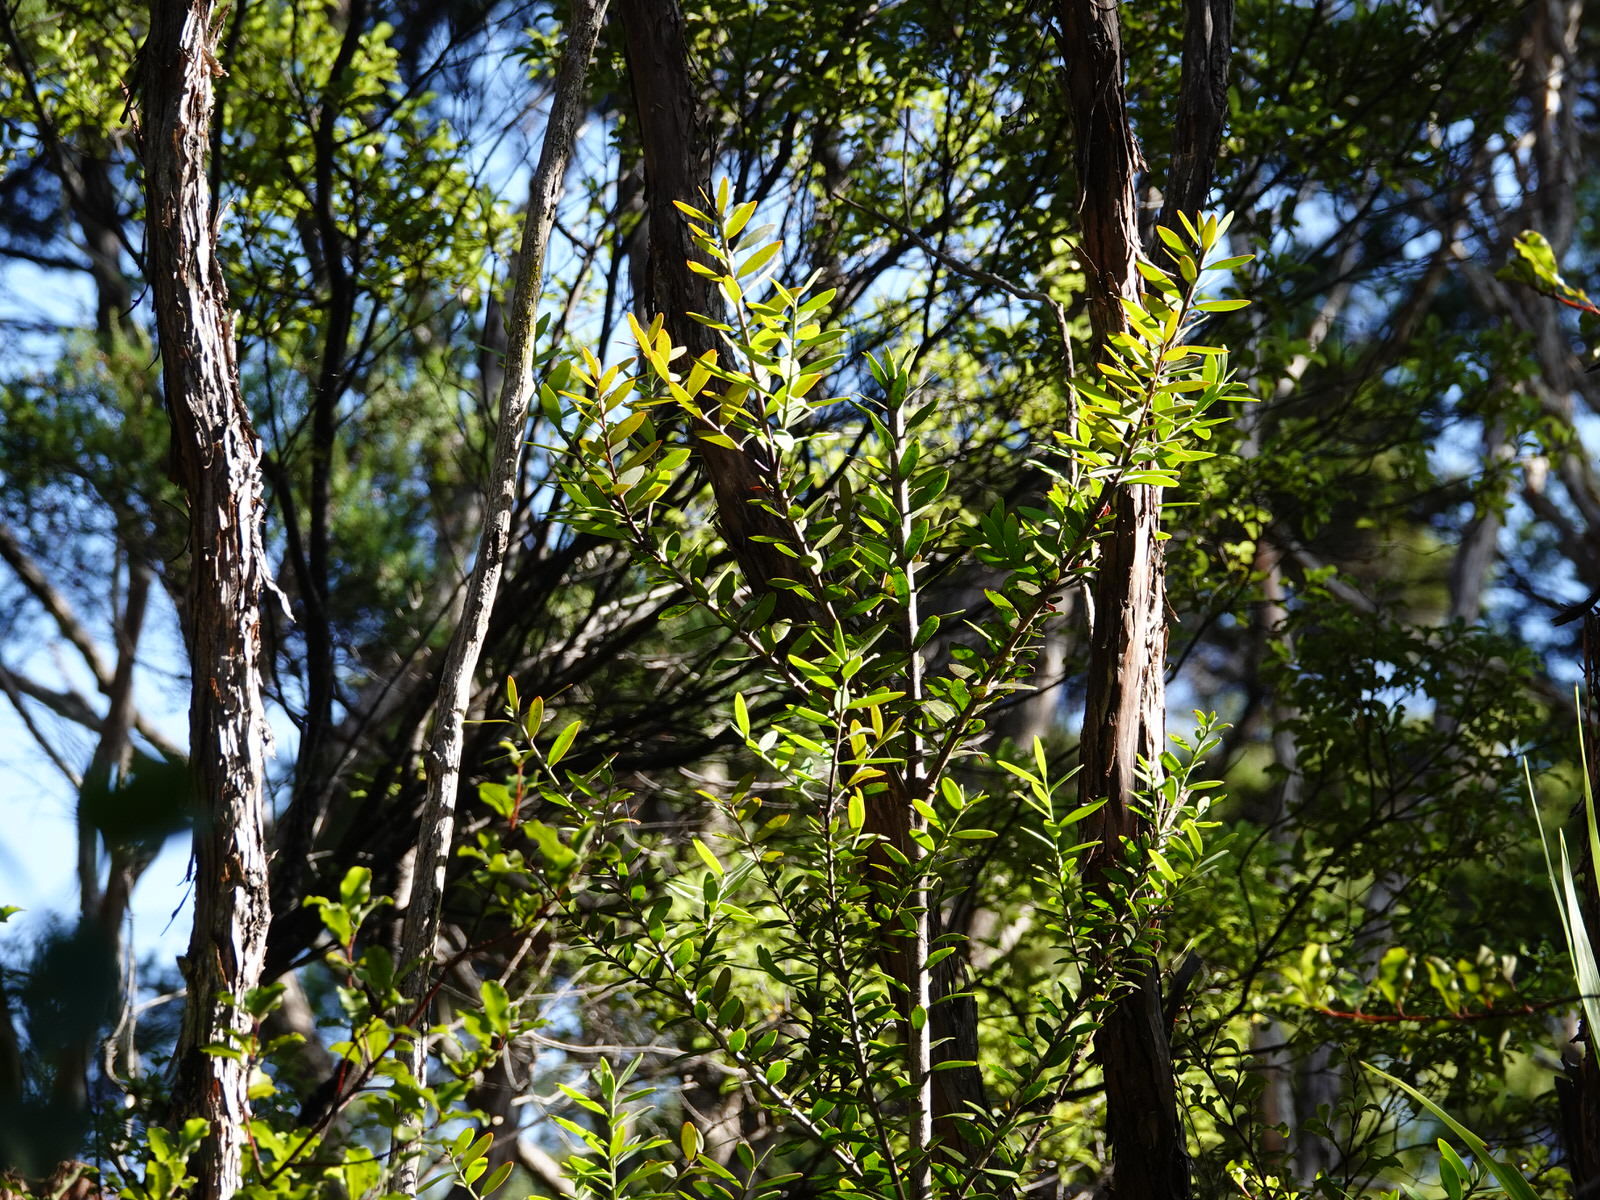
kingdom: Plantae
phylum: Tracheophyta
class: Pinopsida
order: Pinales
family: Araucariaceae
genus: Agathis
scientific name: Agathis australis
